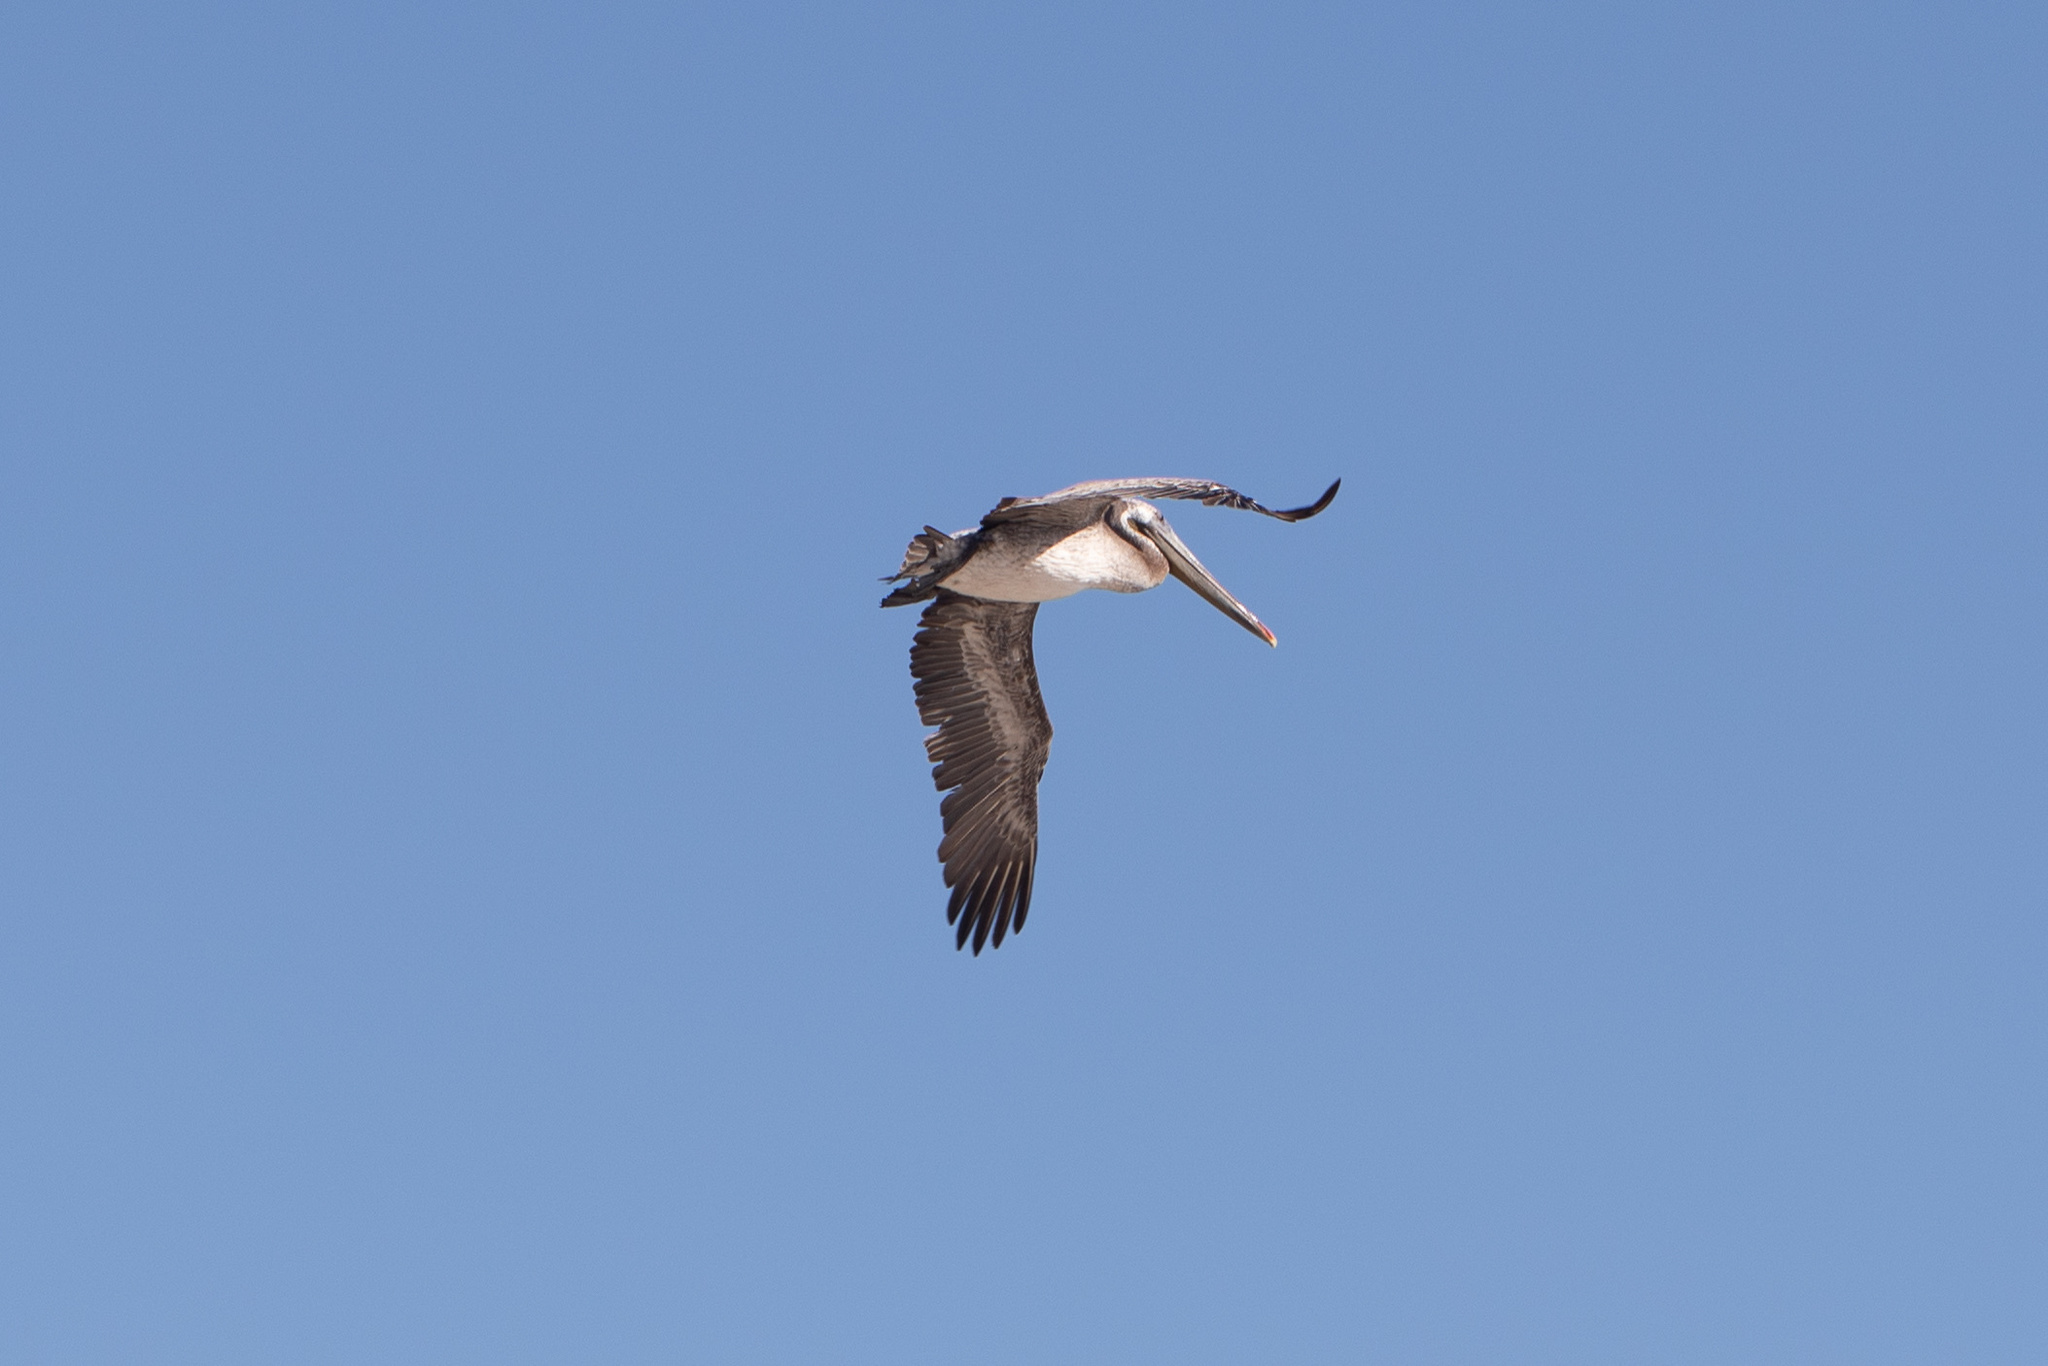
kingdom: Animalia
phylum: Chordata
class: Aves
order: Pelecaniformes
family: Pelecanidae
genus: Pelecanus
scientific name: Pelecanus occidentalis
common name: Brown pelican
